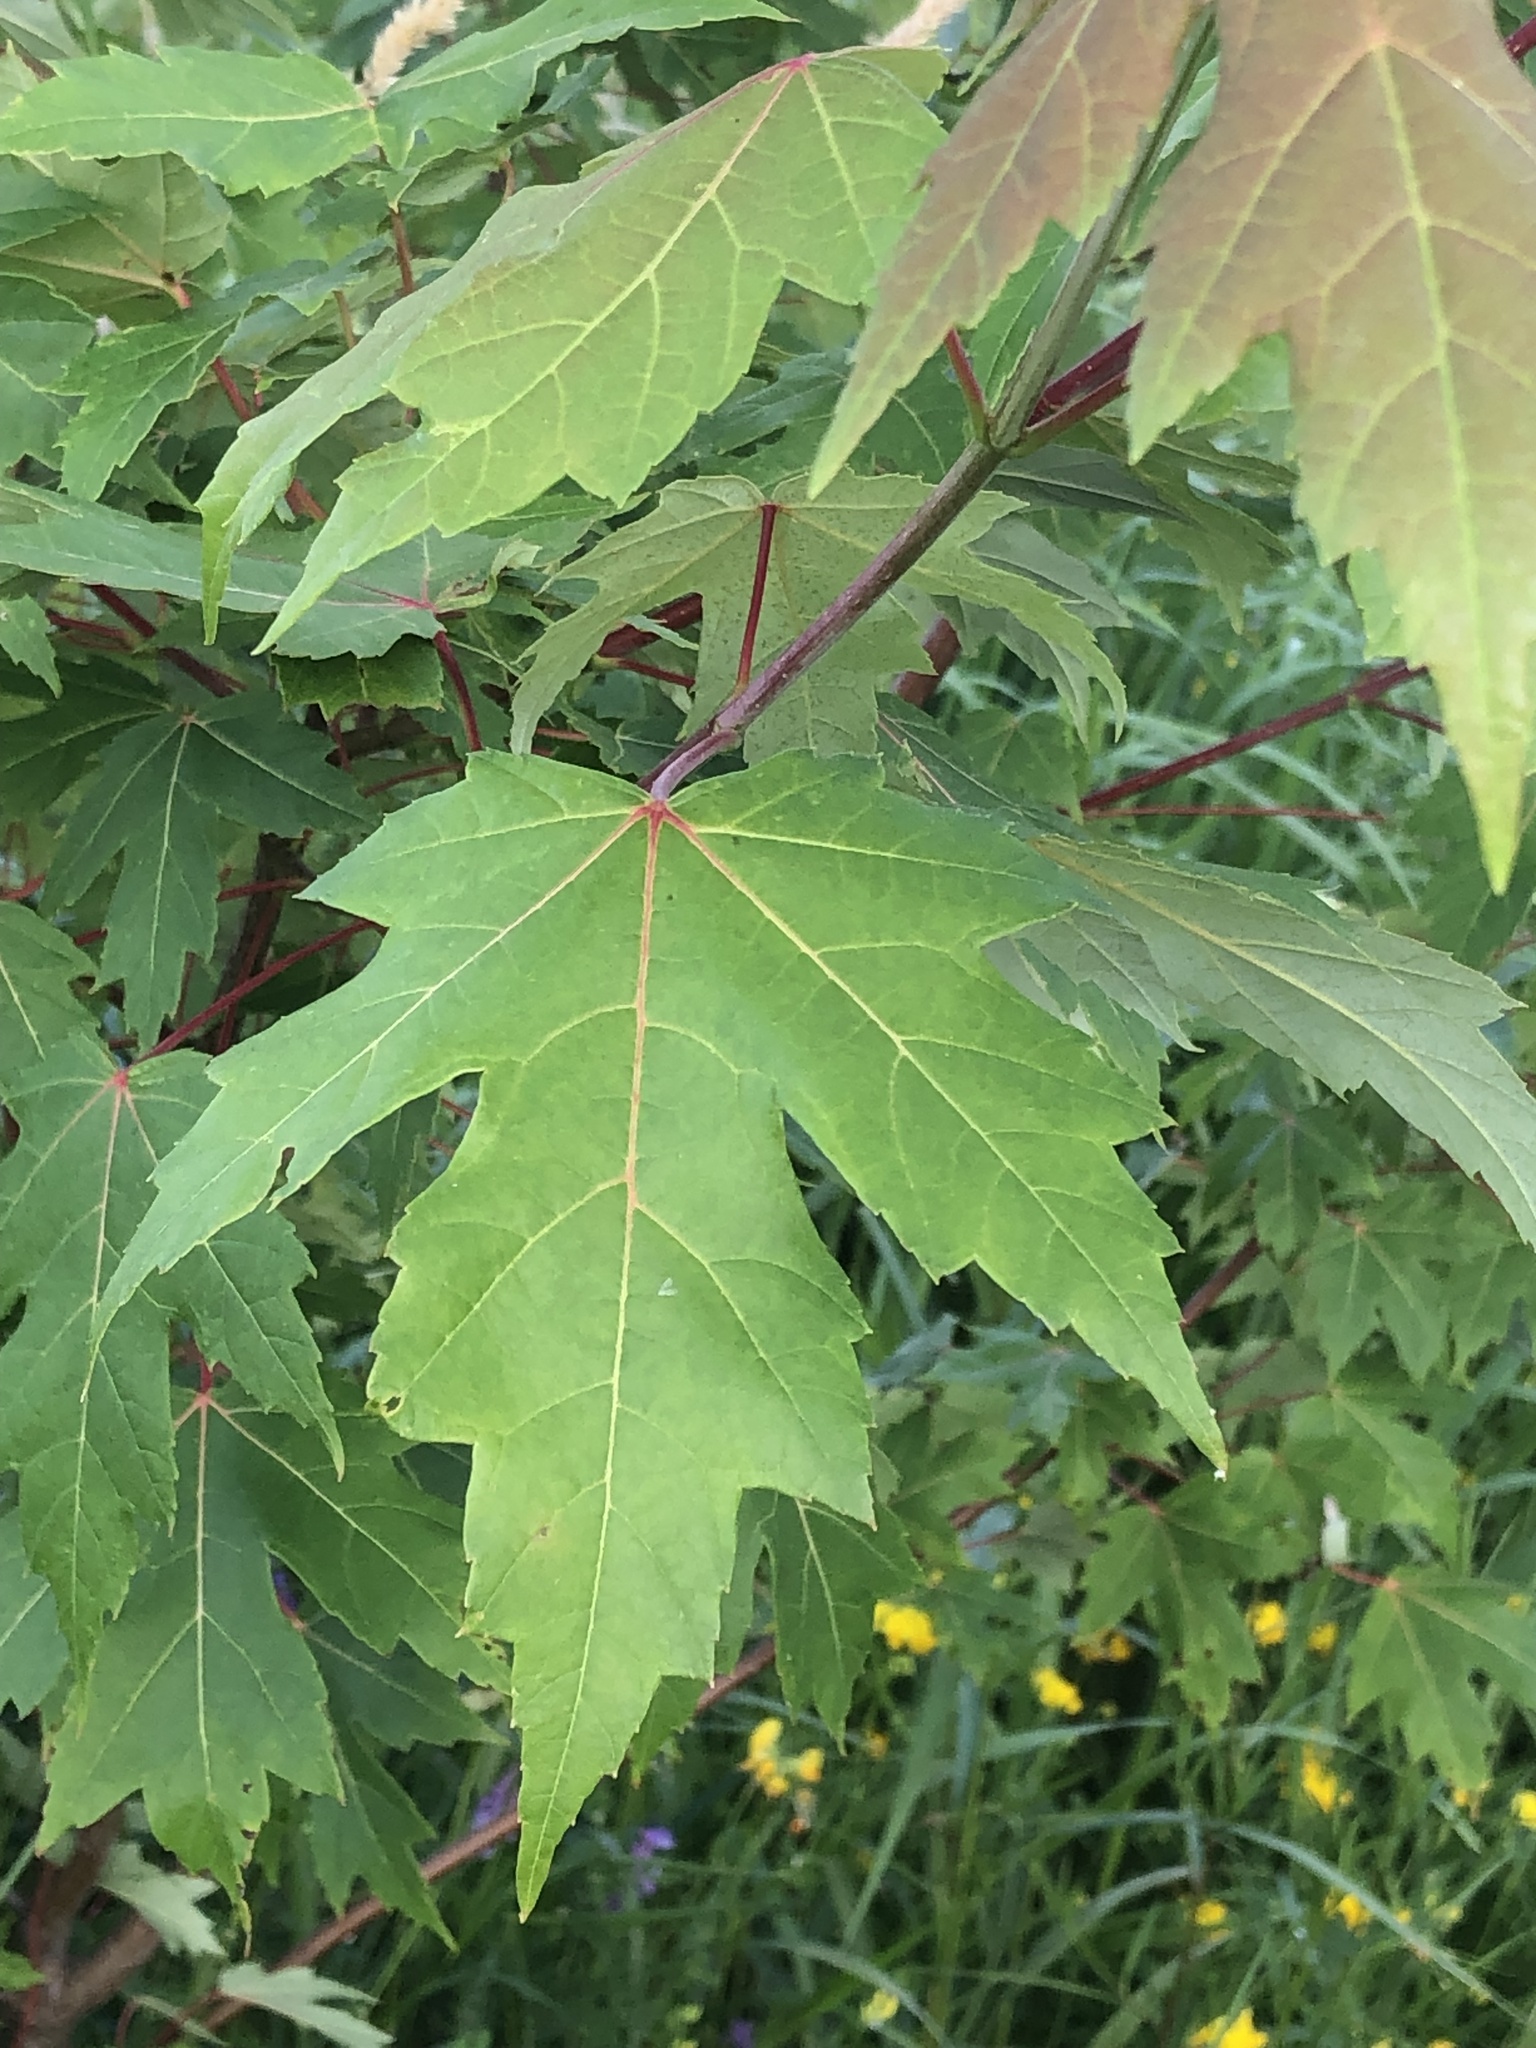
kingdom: Plantae
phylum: Tracheophyta
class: Magnoliopsida
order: Sapindales
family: Sapindaceae
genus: Acer
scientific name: Acer saccharinum
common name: Silver maple
